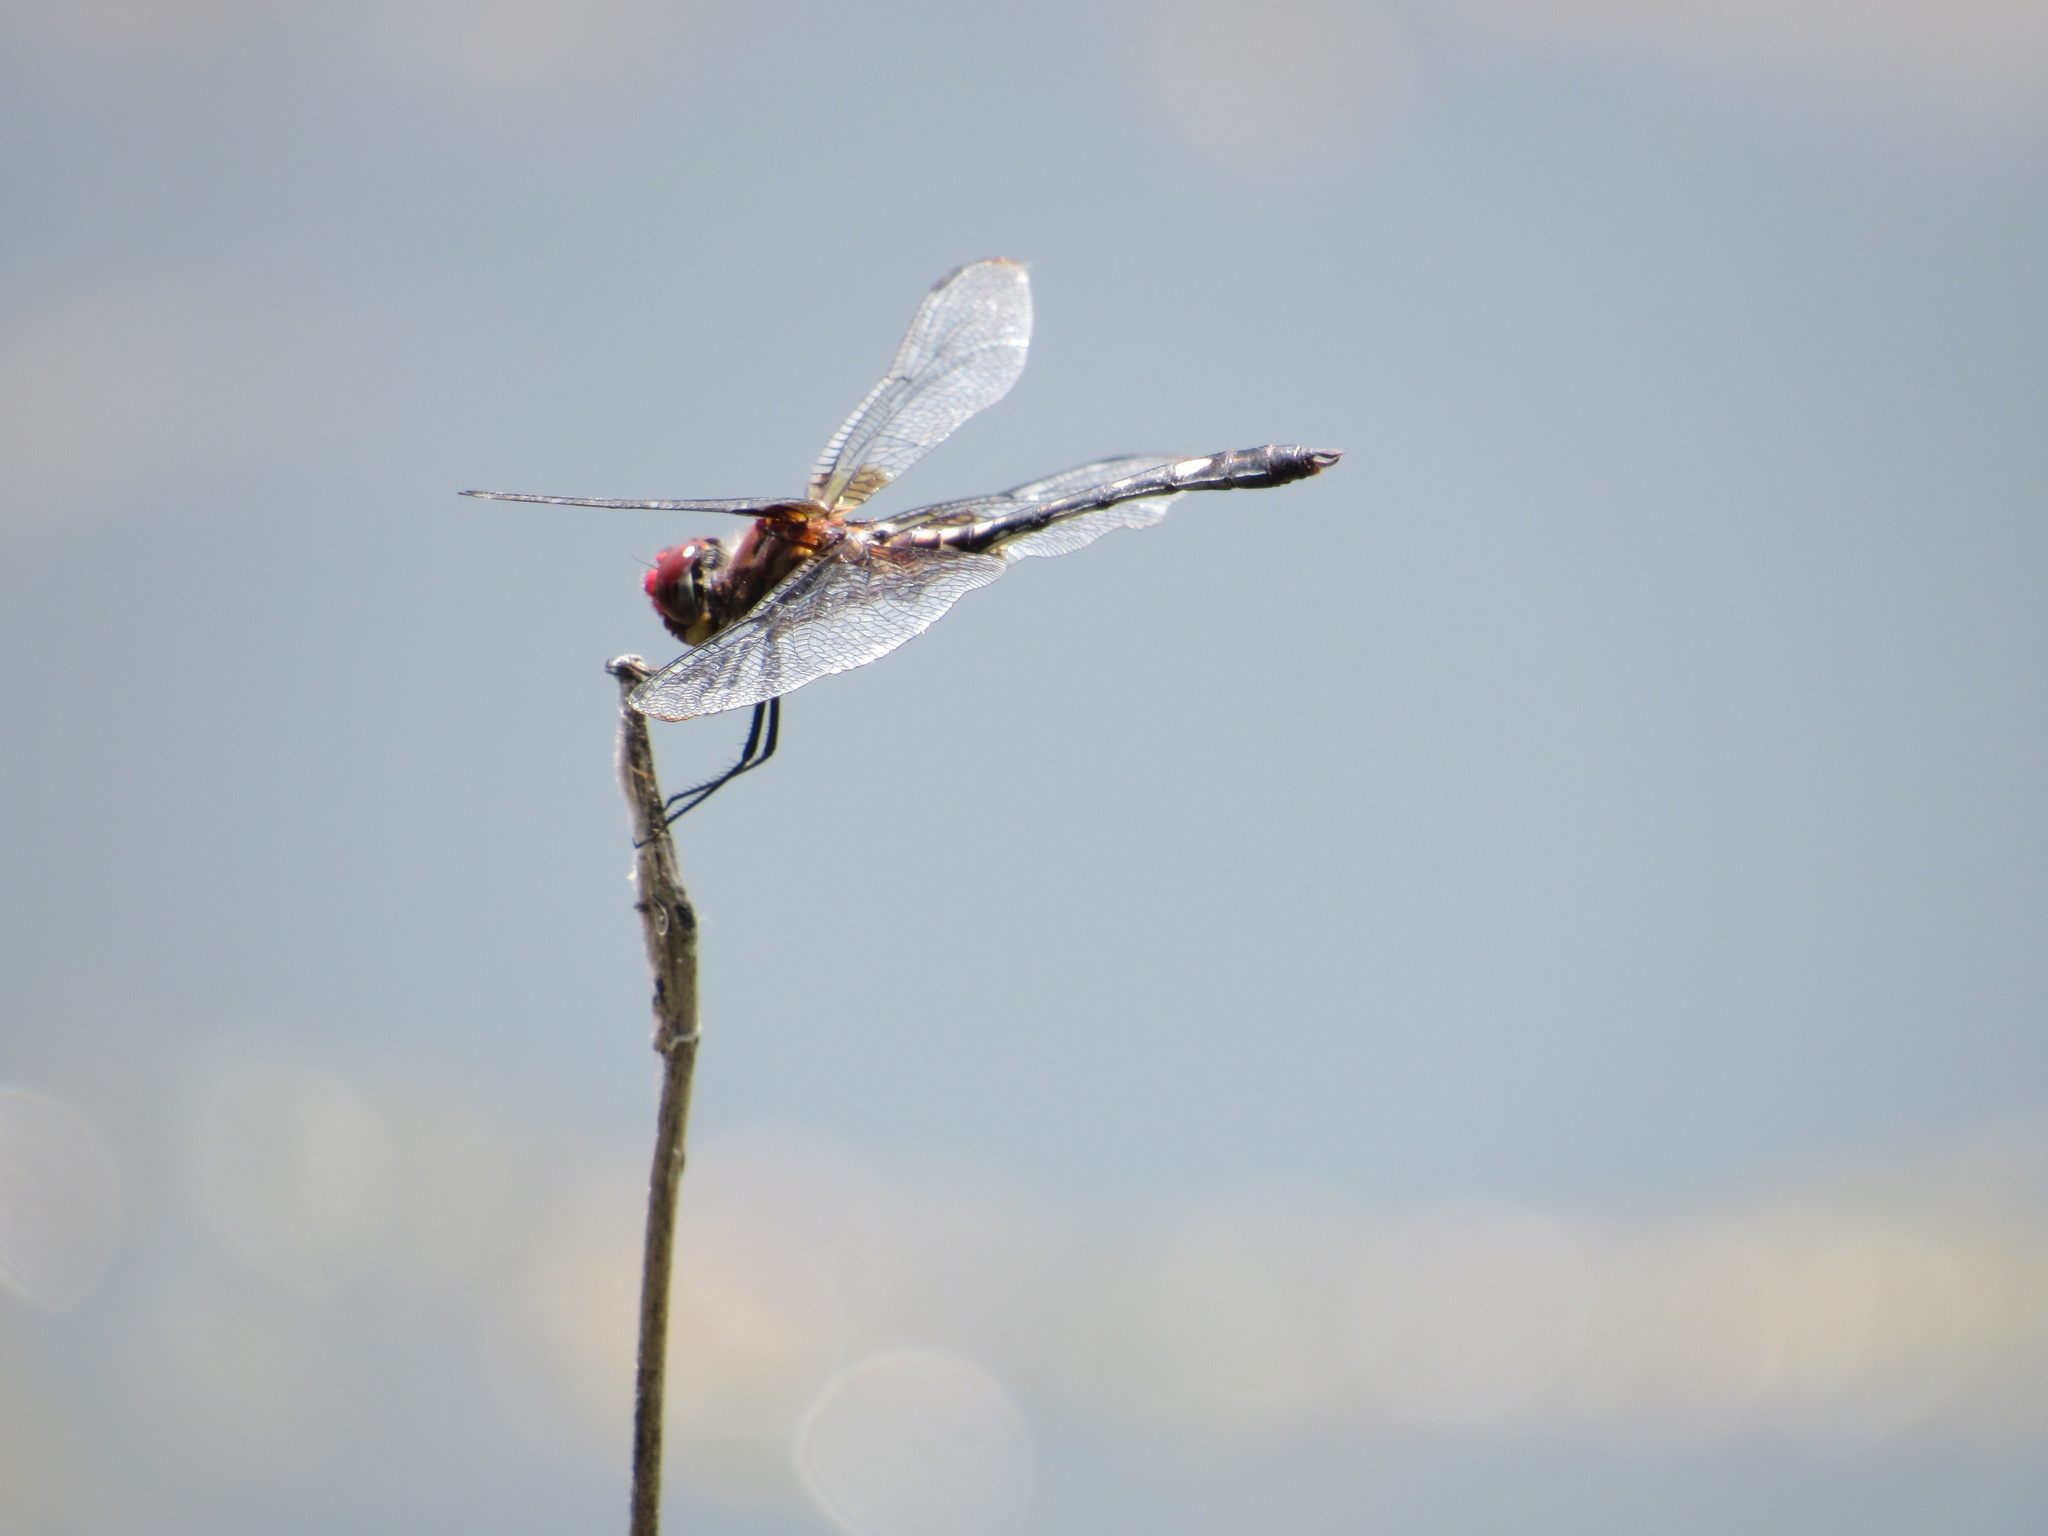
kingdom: Animalia
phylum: Arthropoda
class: Insecta
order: Odonata
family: Libellulidae
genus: Dythemis
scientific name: Dythemis fugax
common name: Checkered setwing
